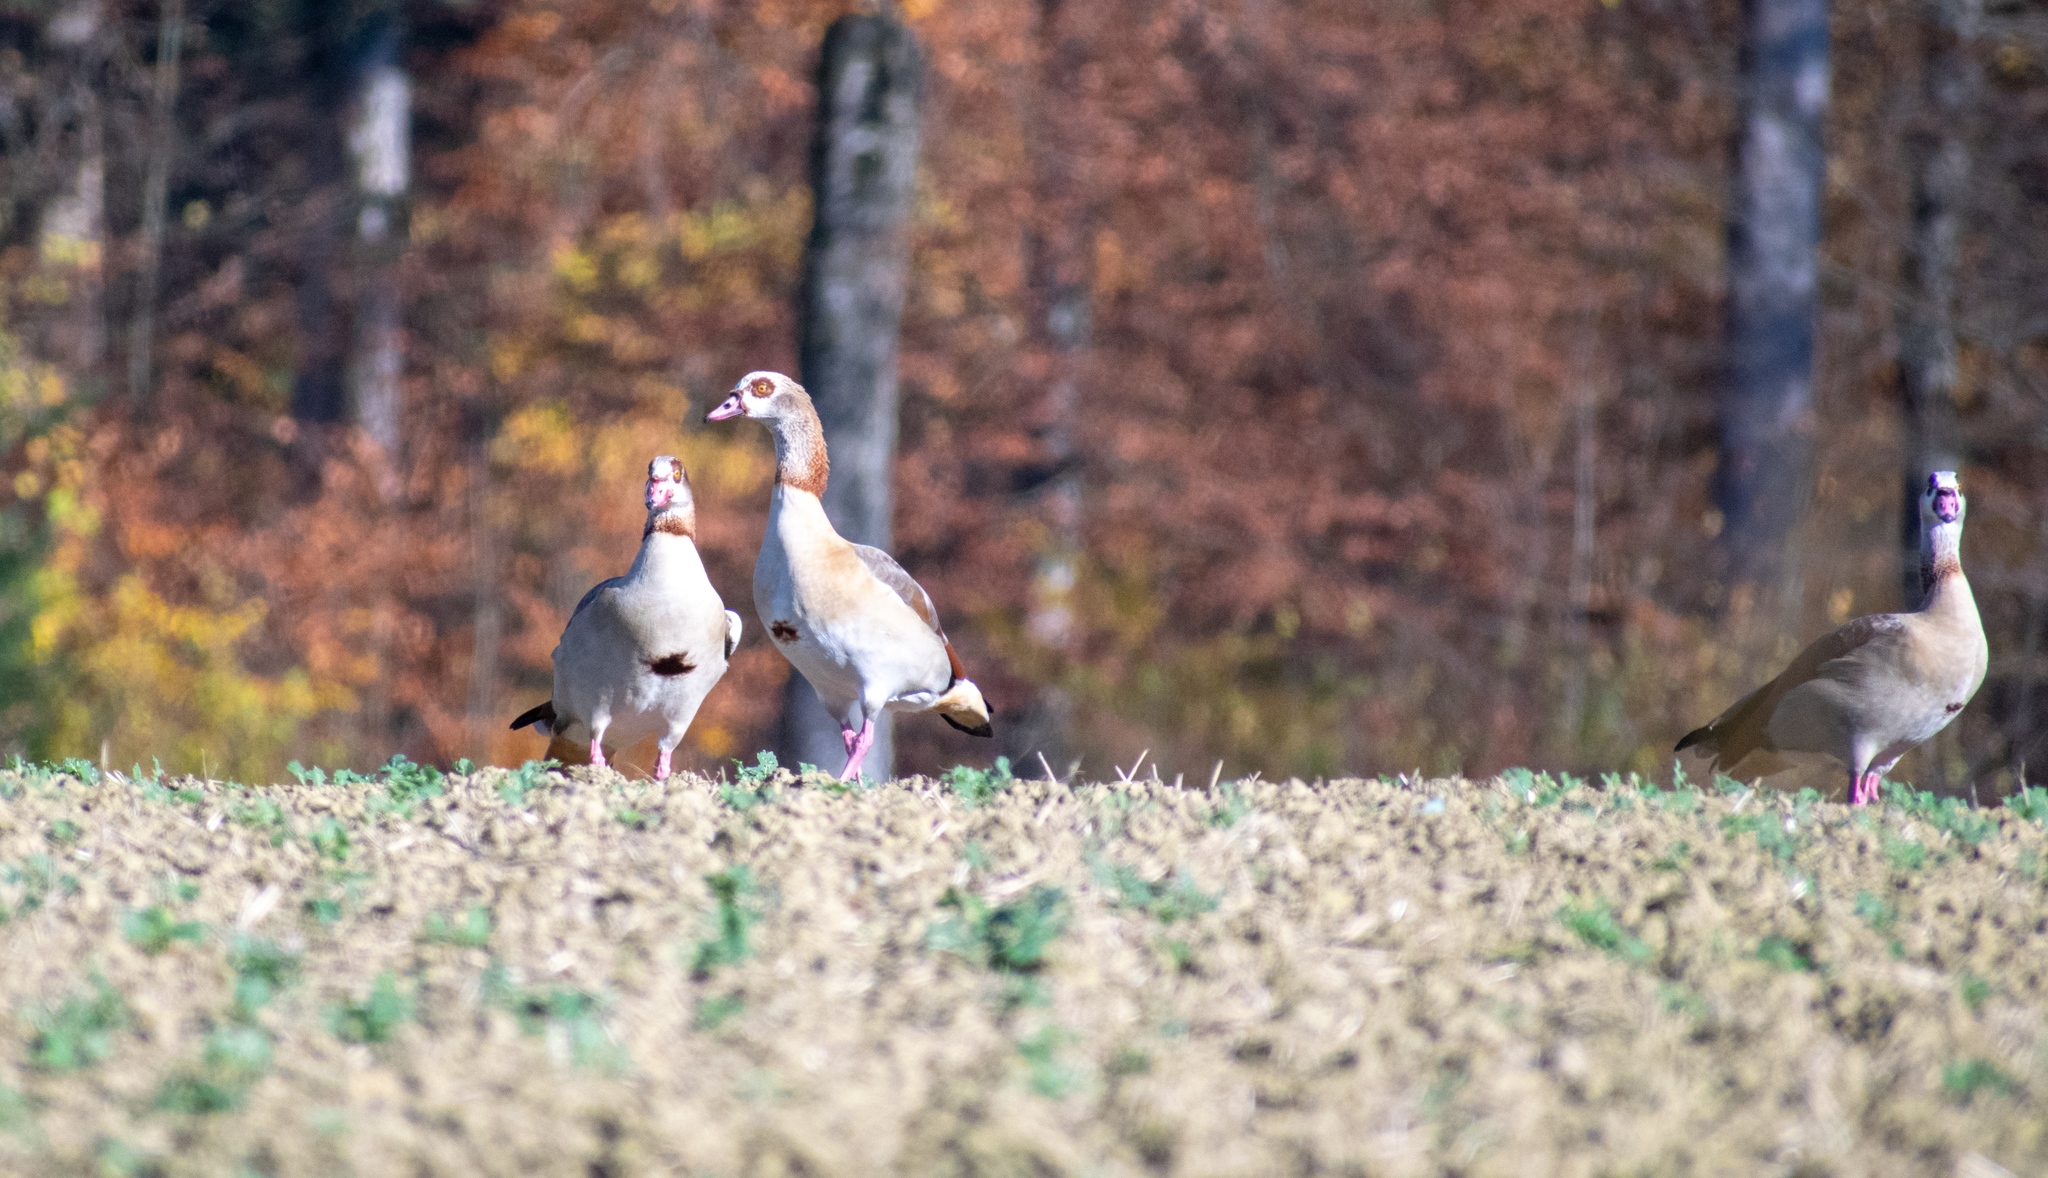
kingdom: Animalia
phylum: Chordata
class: Aves
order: Anseriformes
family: Anatidae
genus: Alopochen
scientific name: Alopochen aegyptiaca
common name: Egyptian goose
